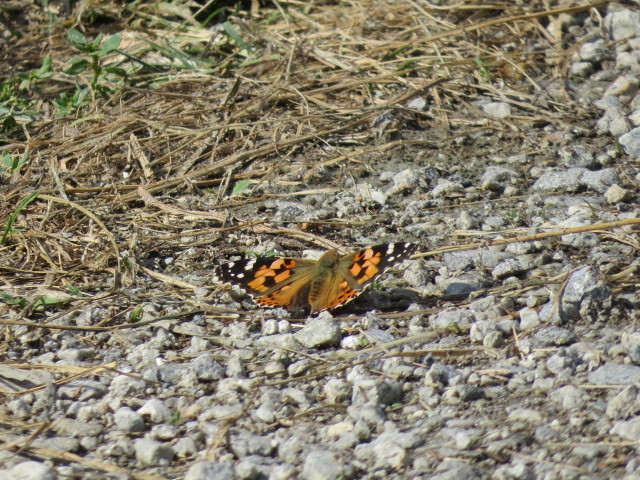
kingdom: Animalia
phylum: Arthropoda
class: Insecta
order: Lepidoptera
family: Nymphalidae
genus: Vanessa
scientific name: Vanessa cardui
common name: Painted lady
